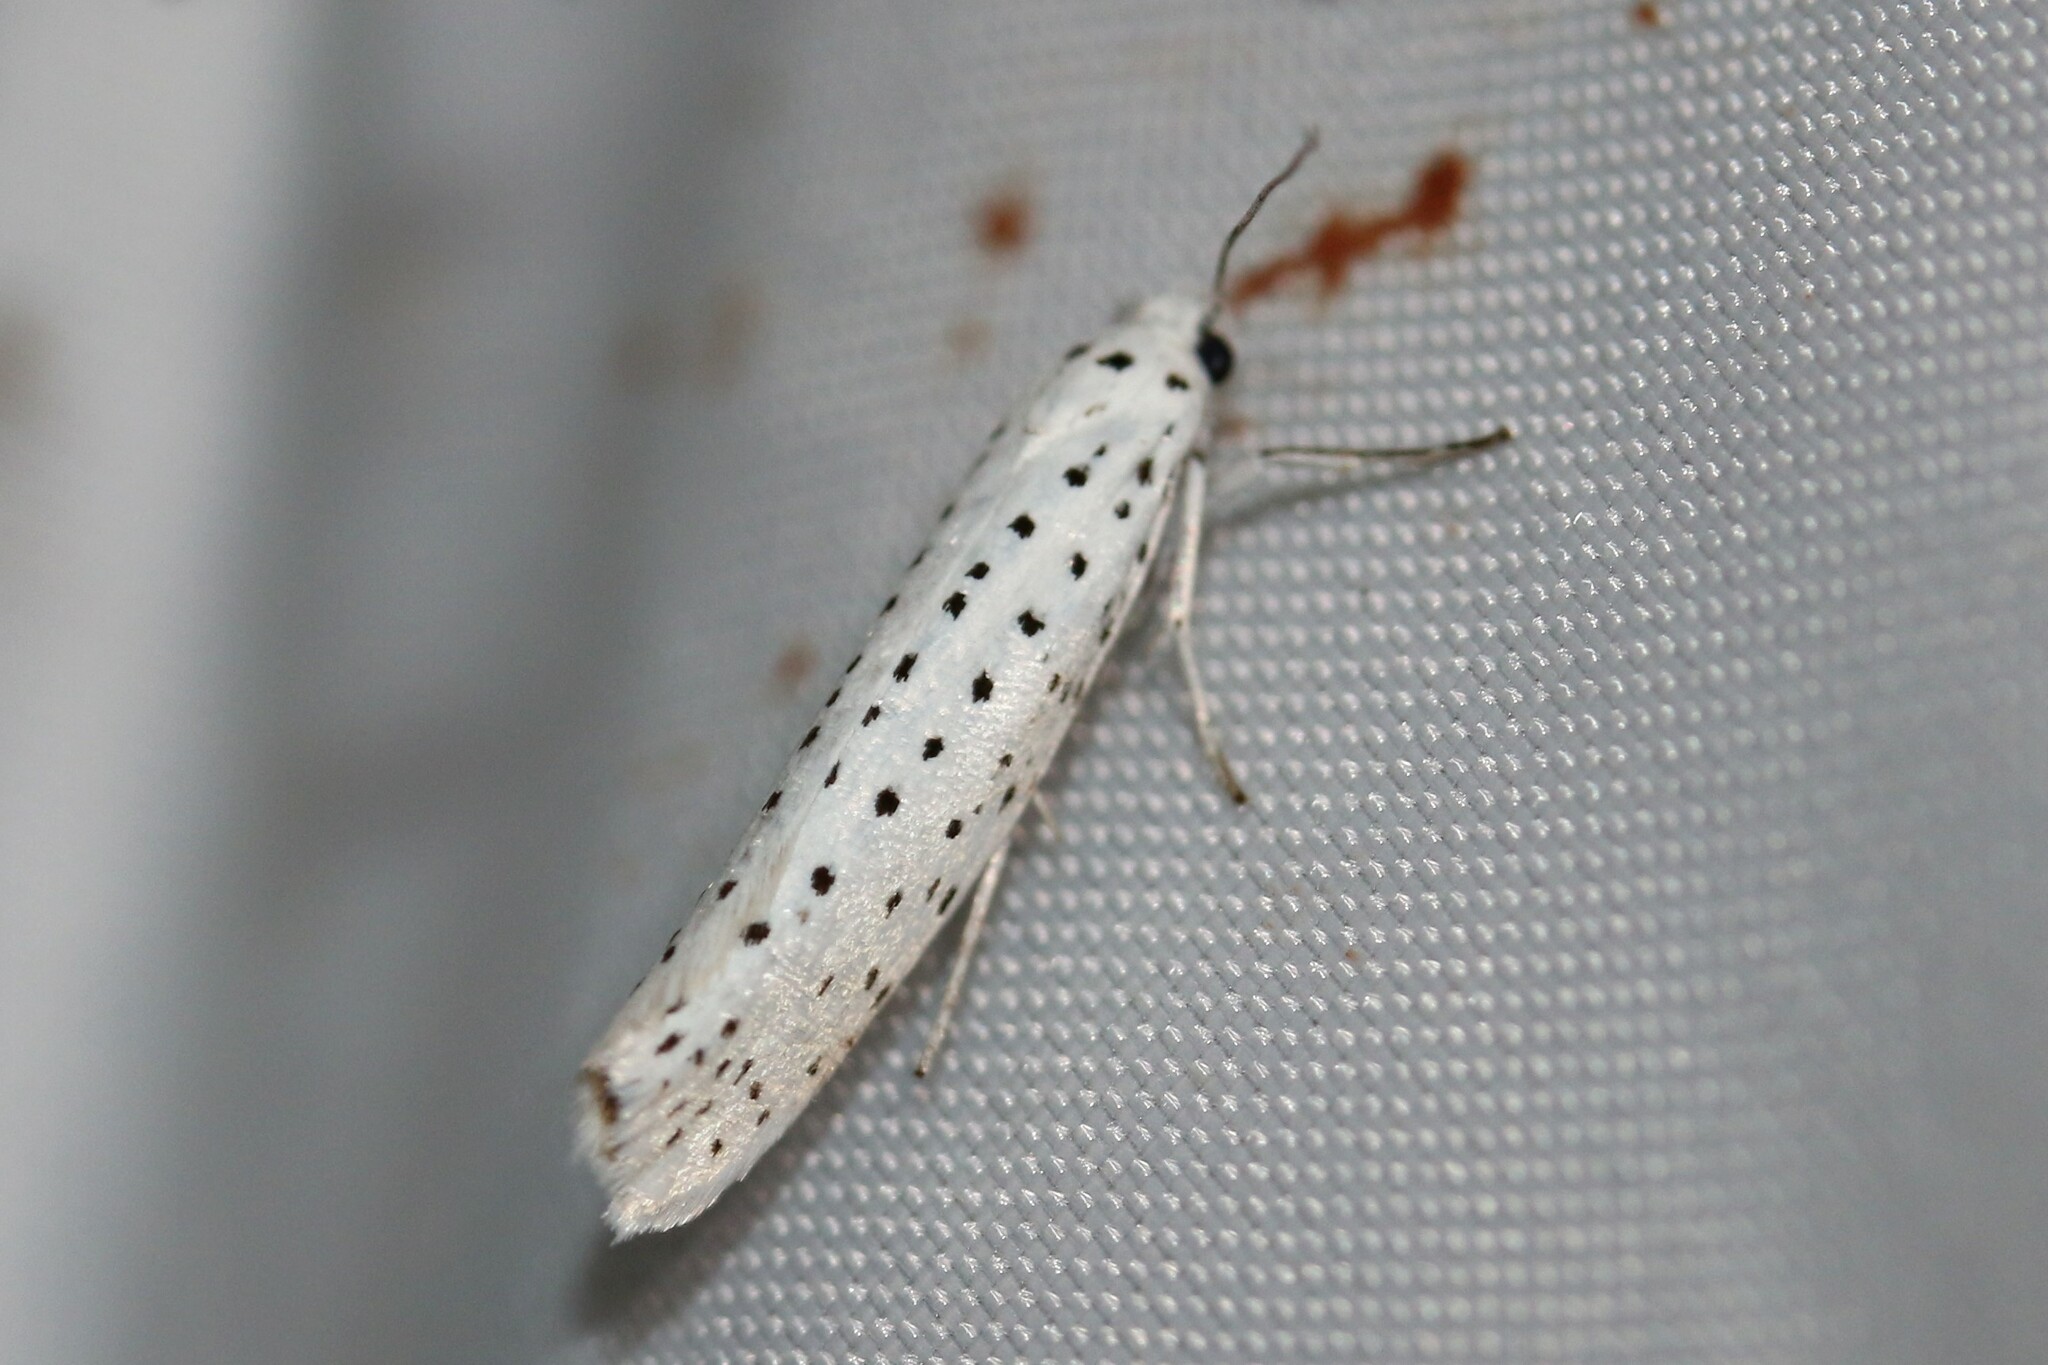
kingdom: Animalia
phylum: Arthropoda
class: Insecta
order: Lepidoptera
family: Yponomeutidae
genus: Yponomeuta
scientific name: Yponomeuta evonymella
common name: Bird-cherry ermine
